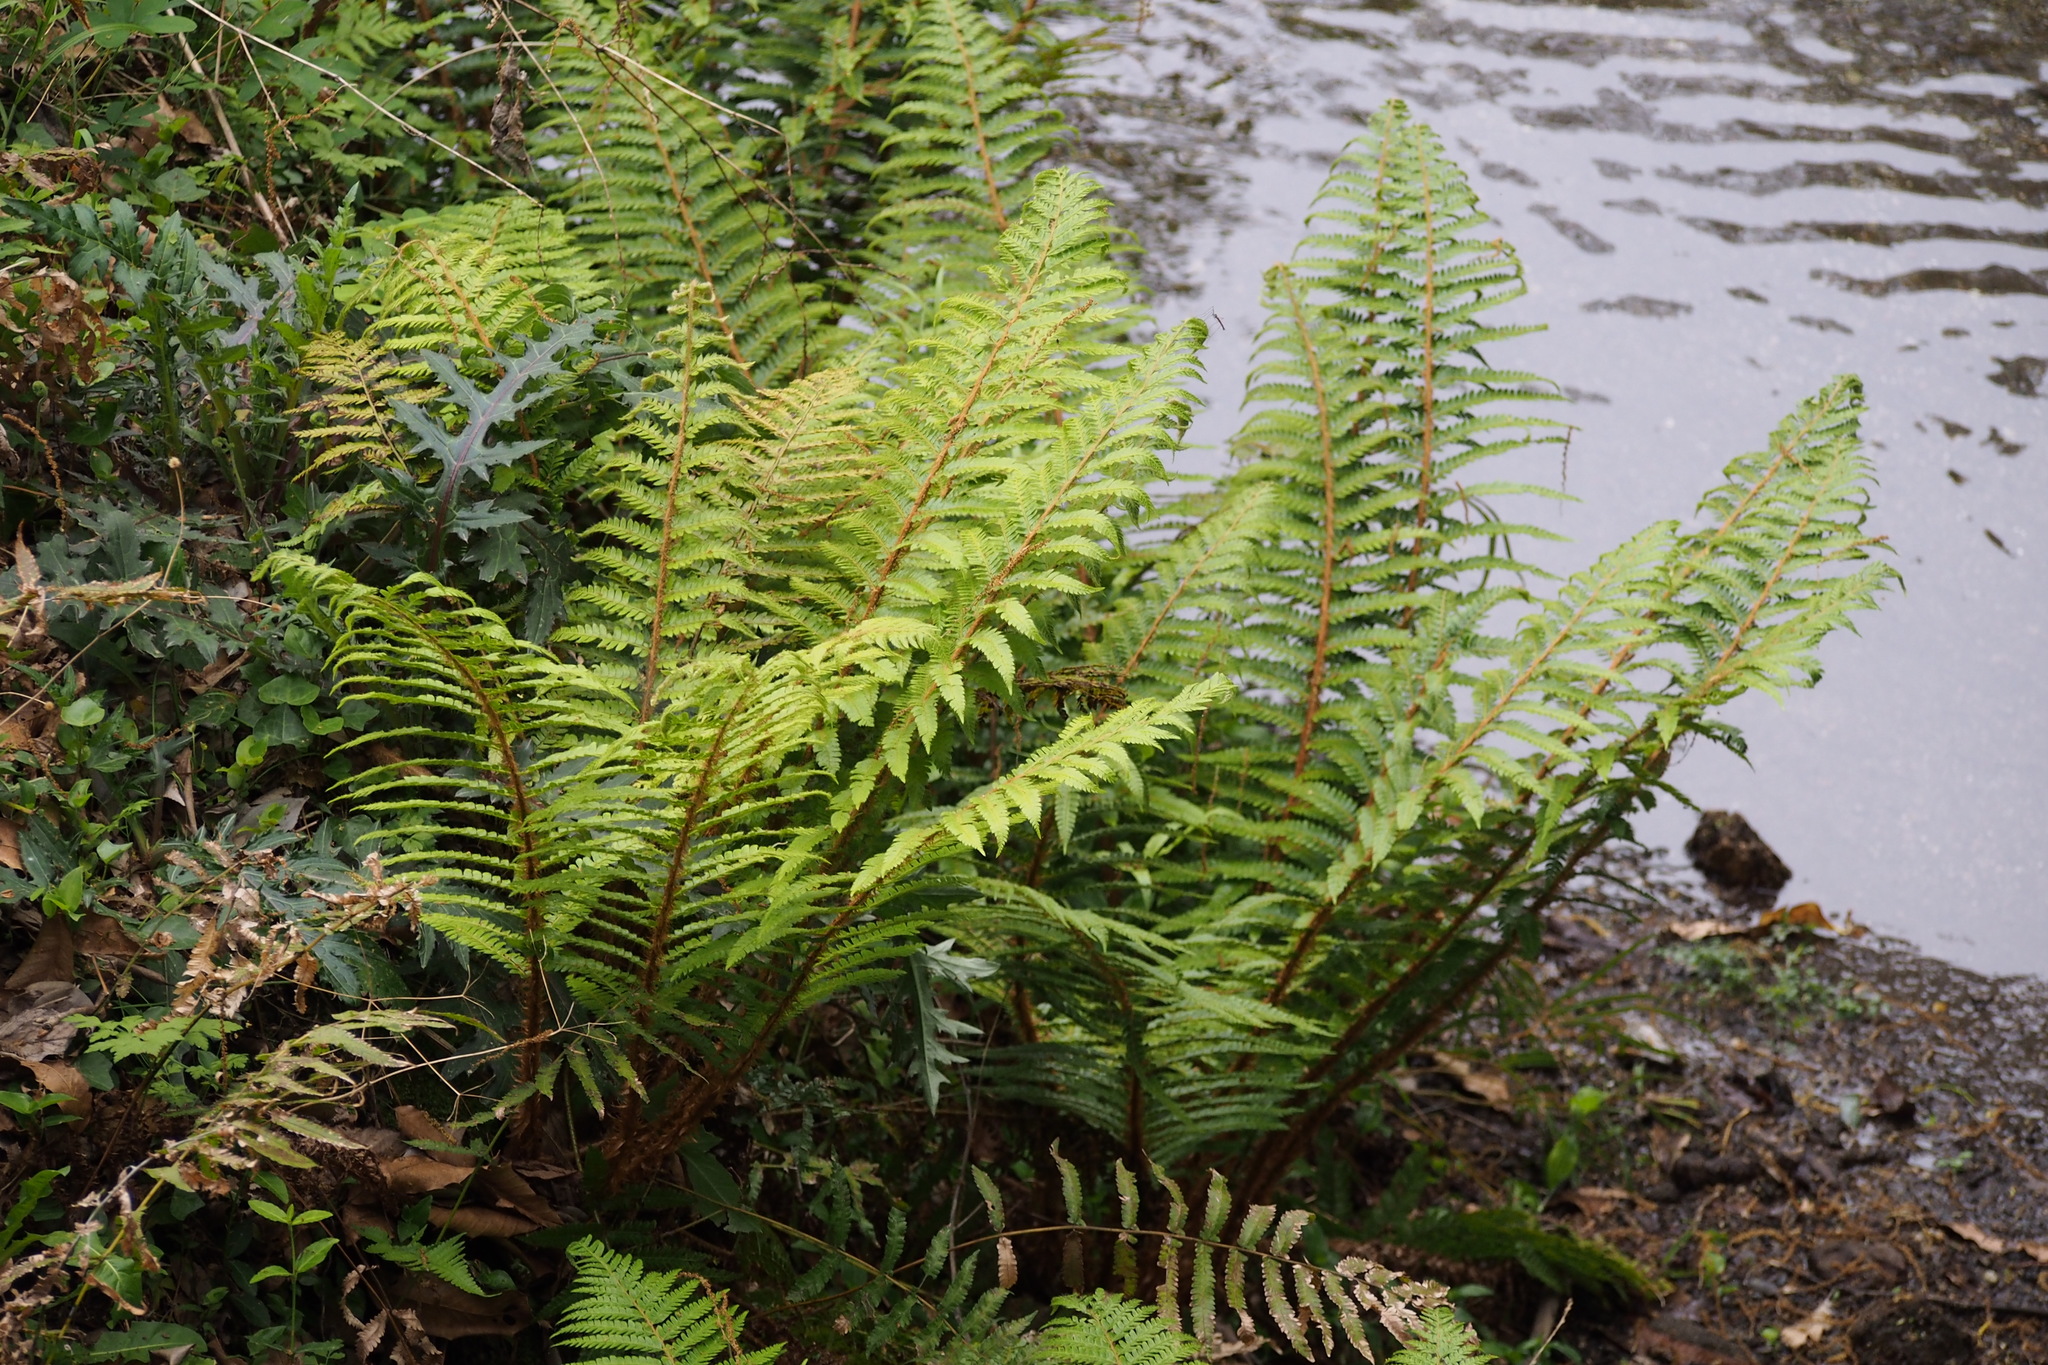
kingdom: Plantae
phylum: Tracheophyta
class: Polypodiopsida
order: Polypodiales
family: Dryopteridaceae
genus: Polystichum
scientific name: Polystichum luctuosum
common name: Korean rockfern
